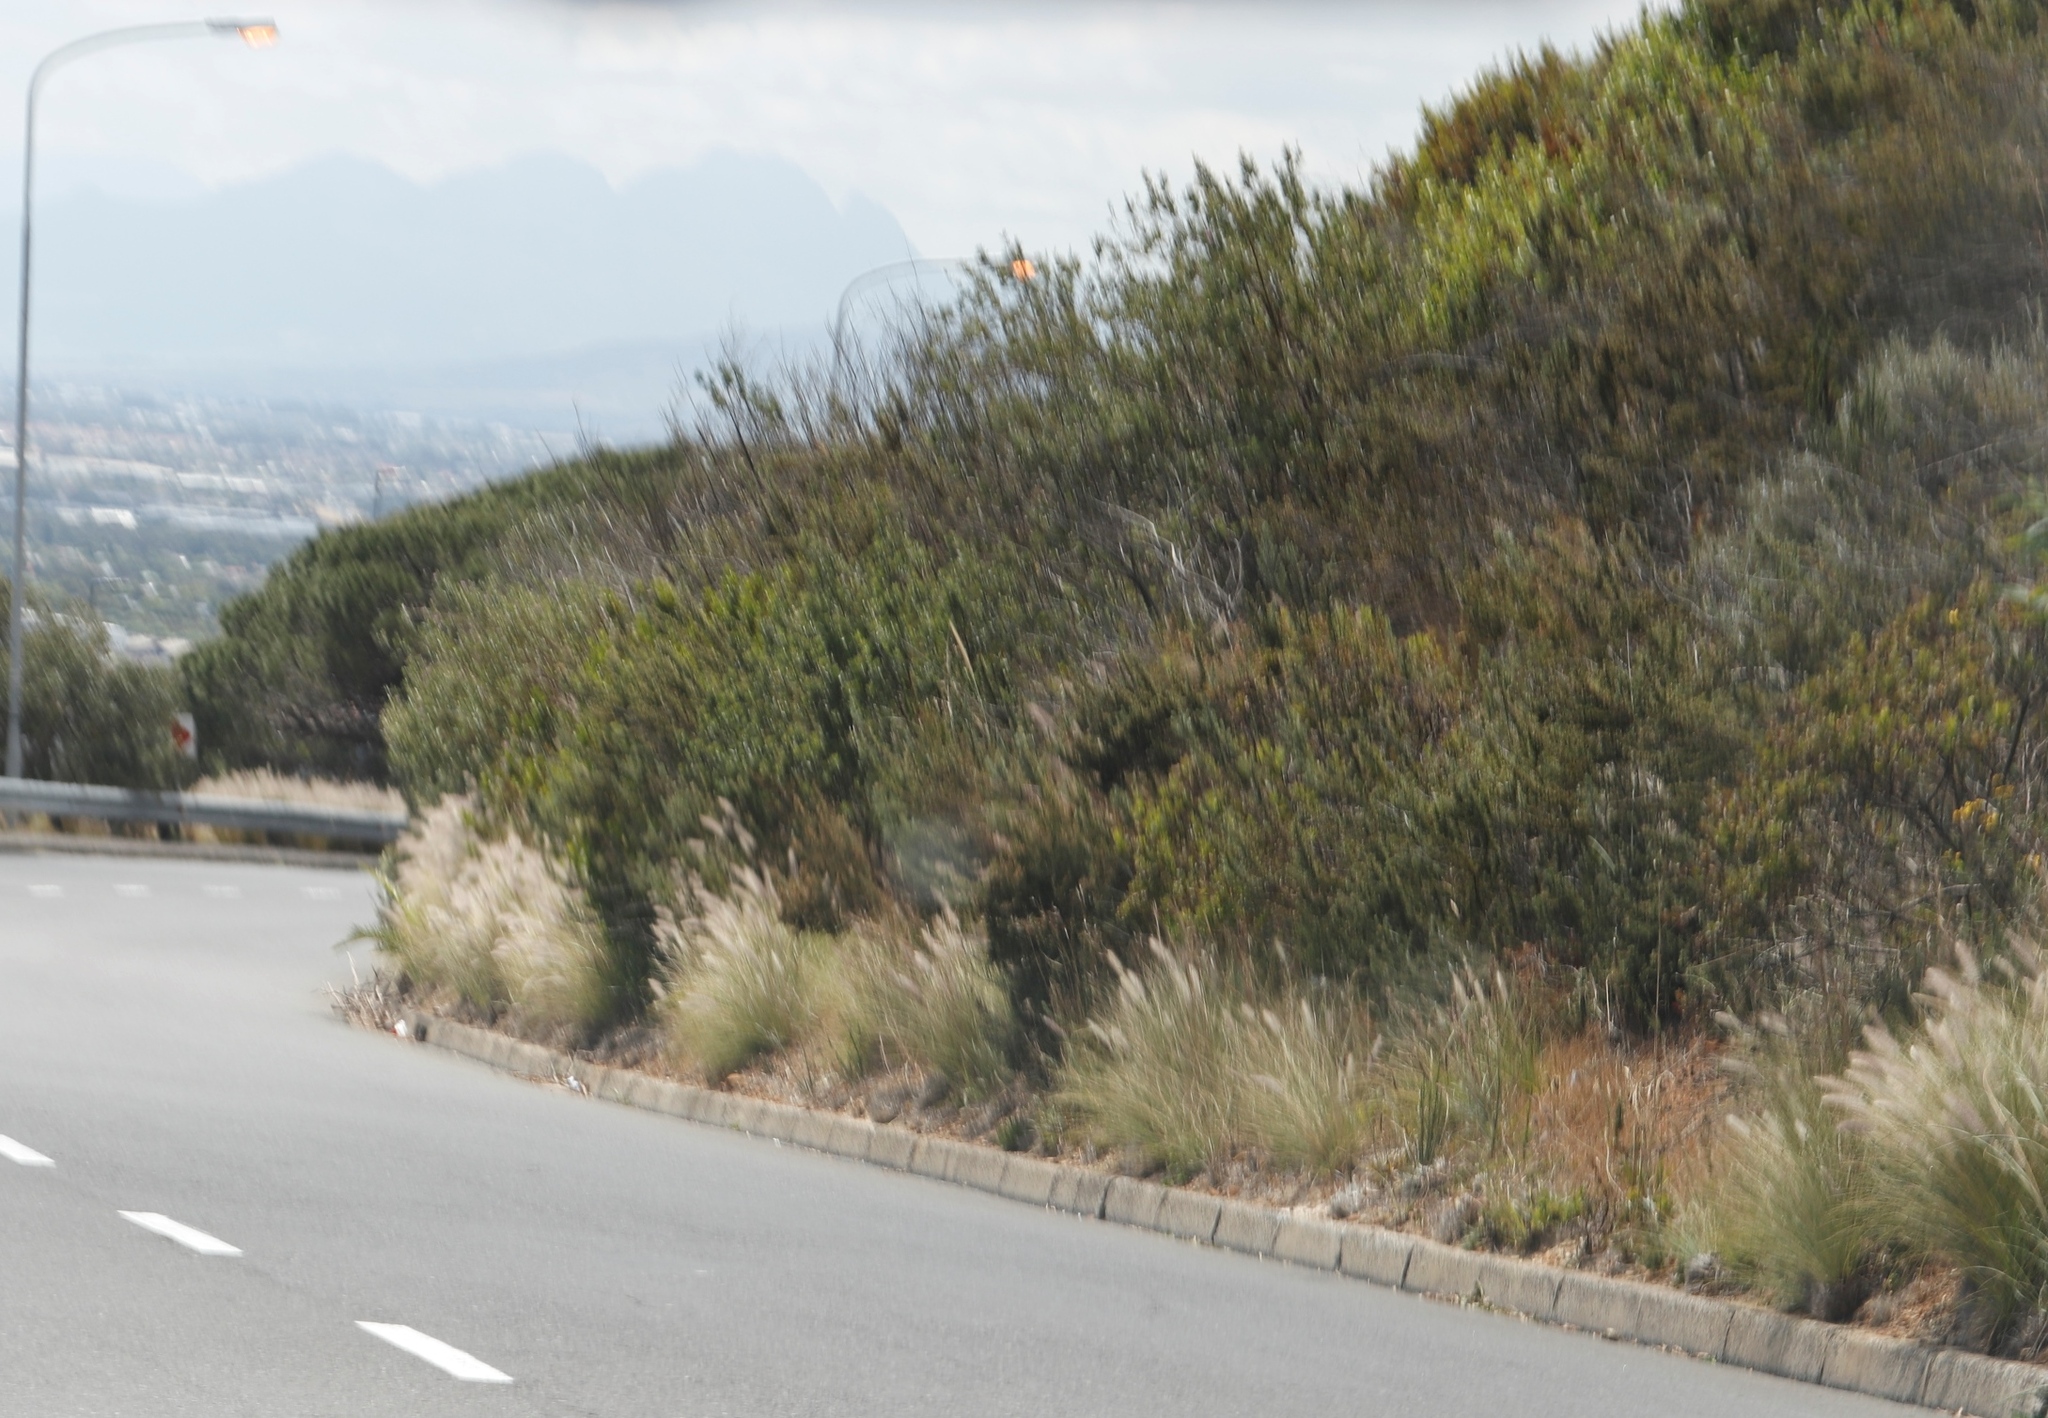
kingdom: Plantae
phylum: Tracheophyta
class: Liliopsida
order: Poales
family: Poaceae
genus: Cenchrus
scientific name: Cenchrus setaceus
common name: Crimson fountaingrass
